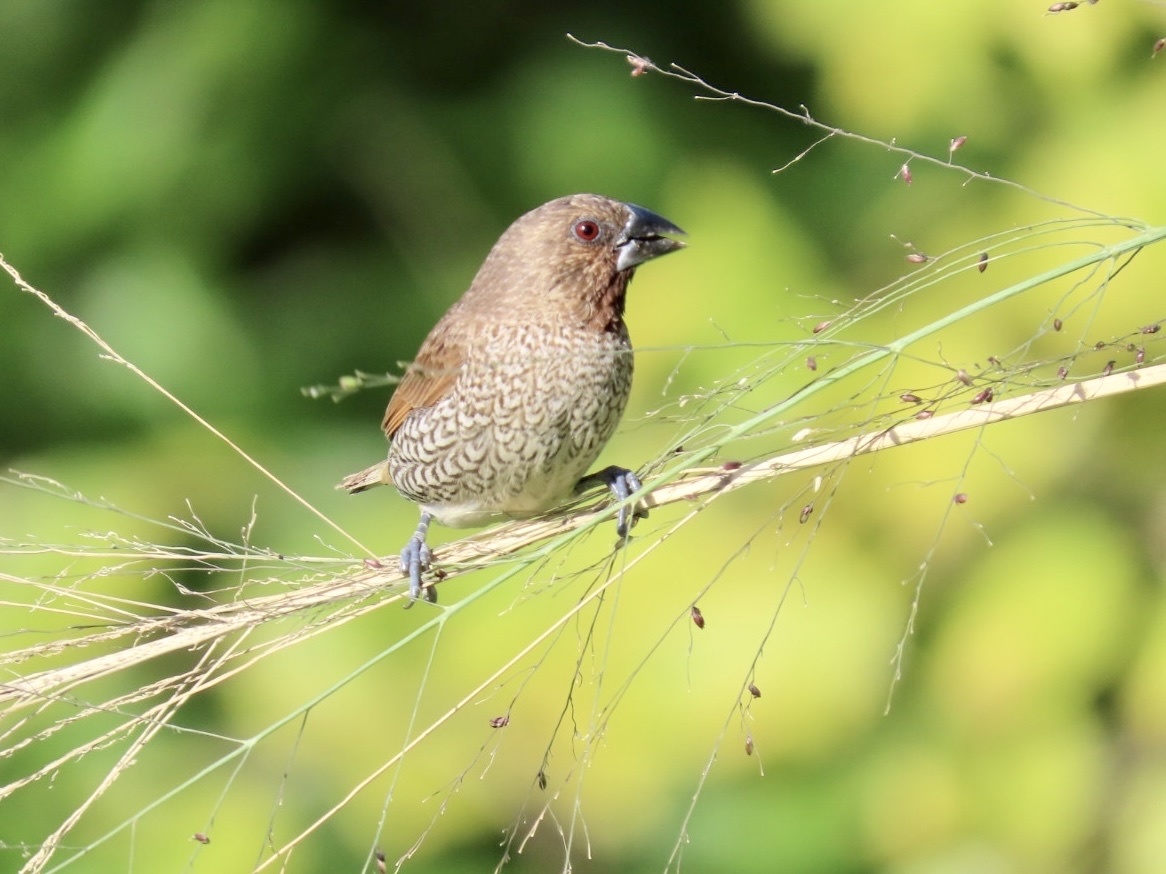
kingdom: Animalia
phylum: Chordata
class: Aves
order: Passeriformes
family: Estrildidae
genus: Lonchura
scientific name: Lonchura punctulata
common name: Scaly-breasted munia
